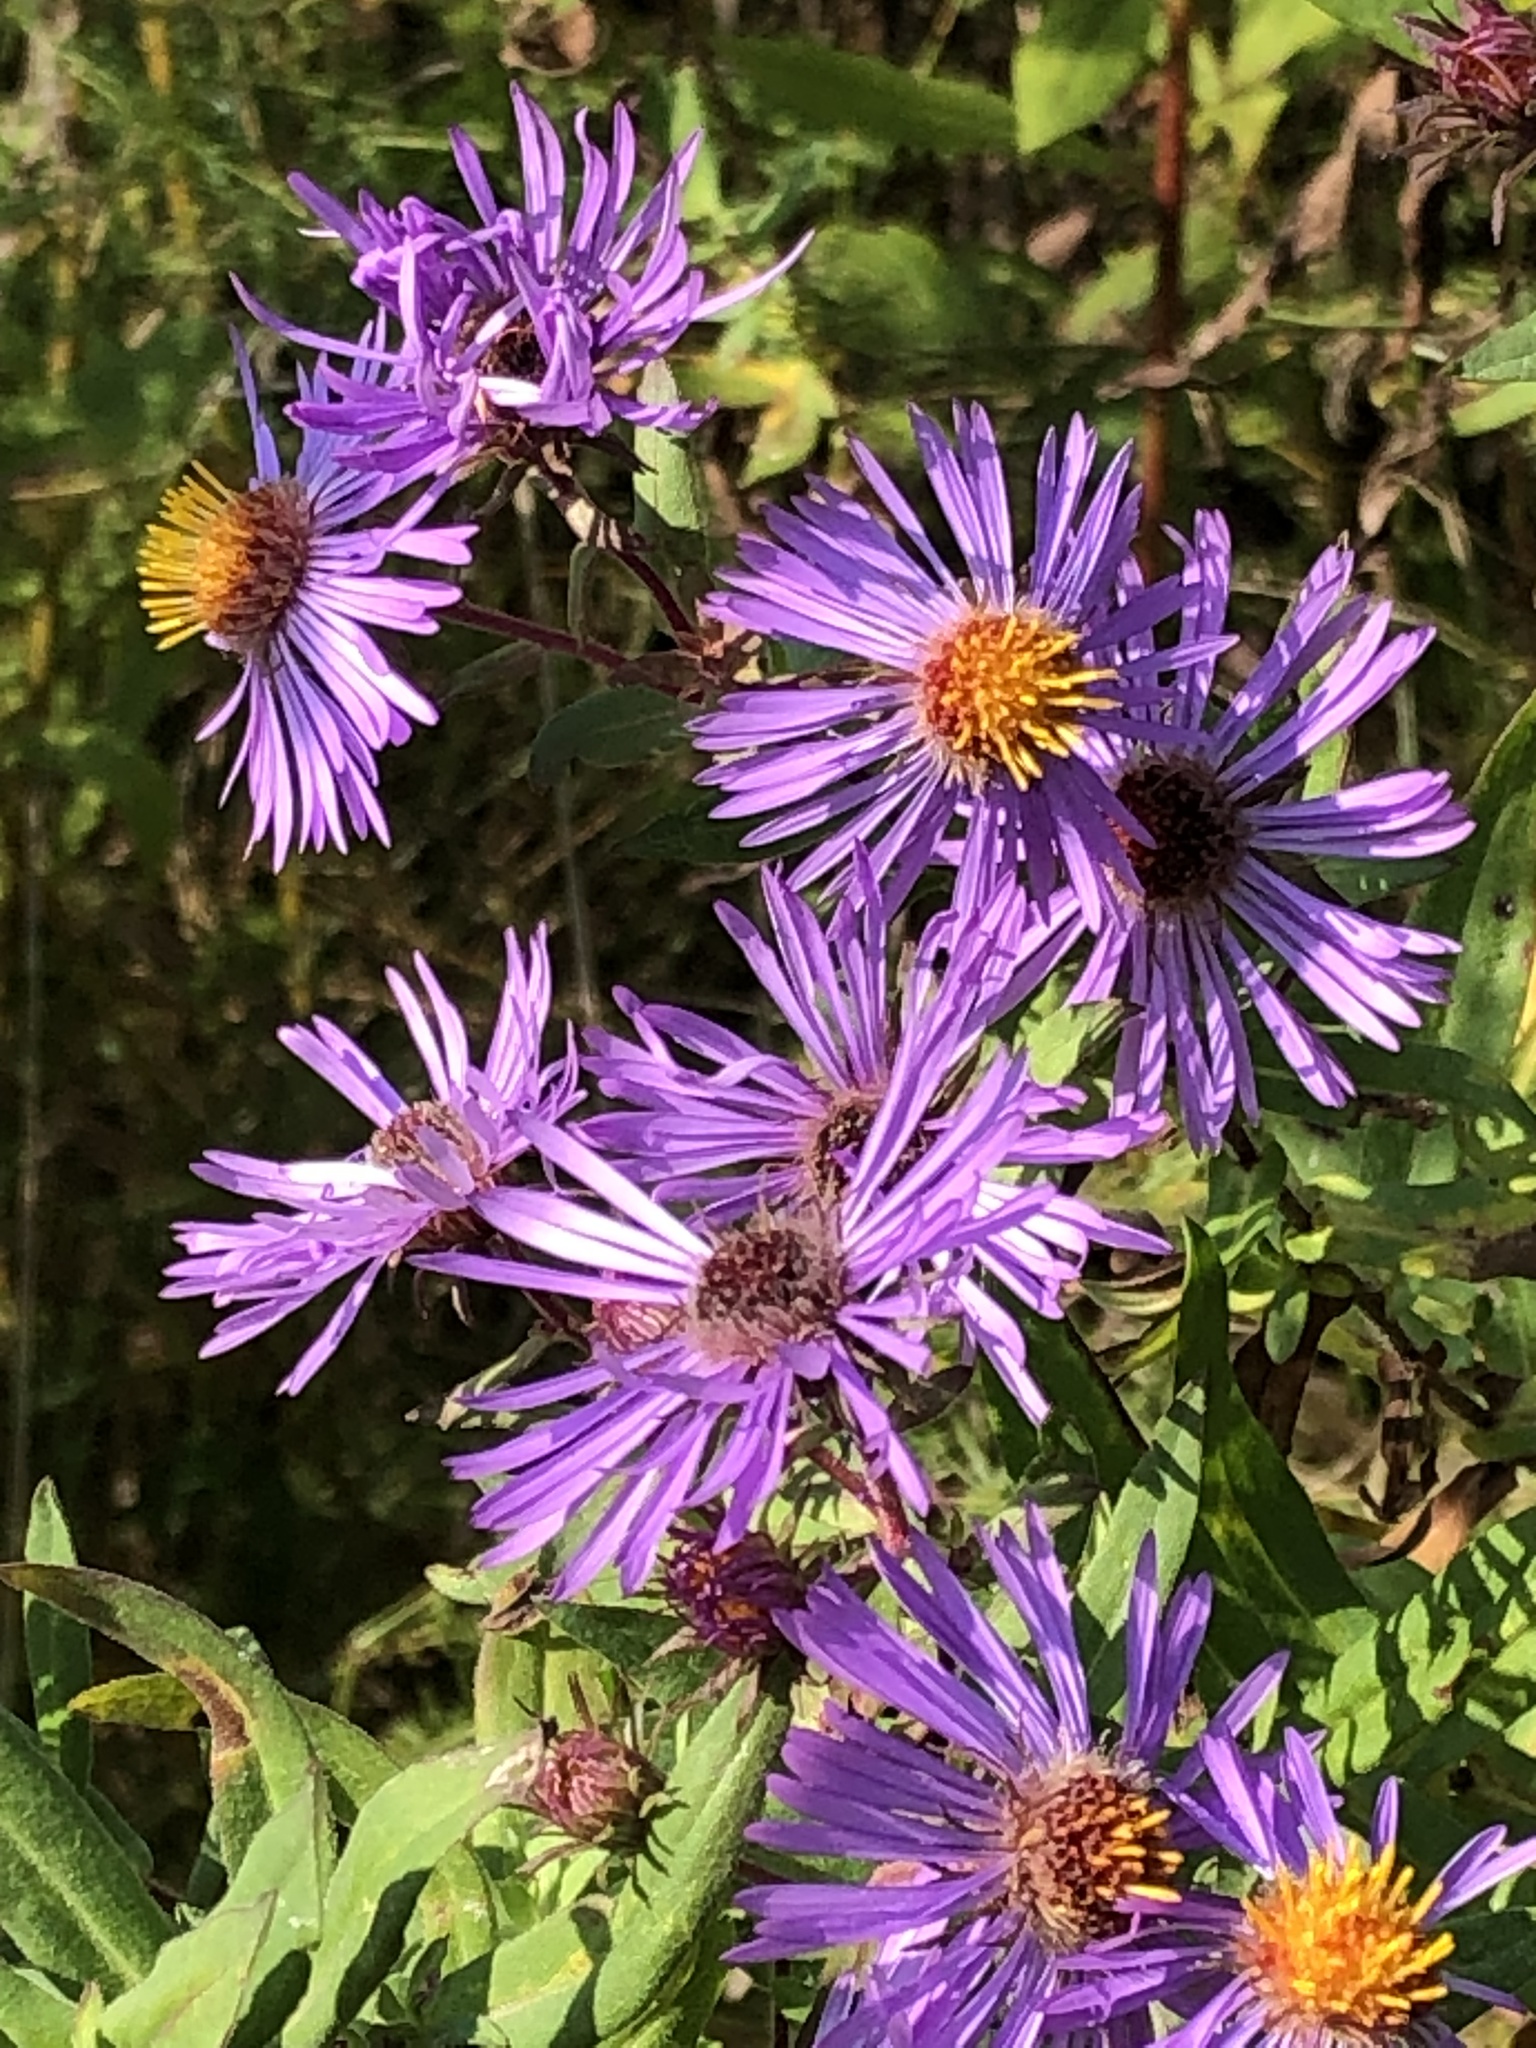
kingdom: Plantae
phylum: Tracheophyta
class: Magnoliopsida
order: Asterales
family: Asteraceae
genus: Symphyotrichum
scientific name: Symphyotrichum novae-angliae
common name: Michaelmas daisy
